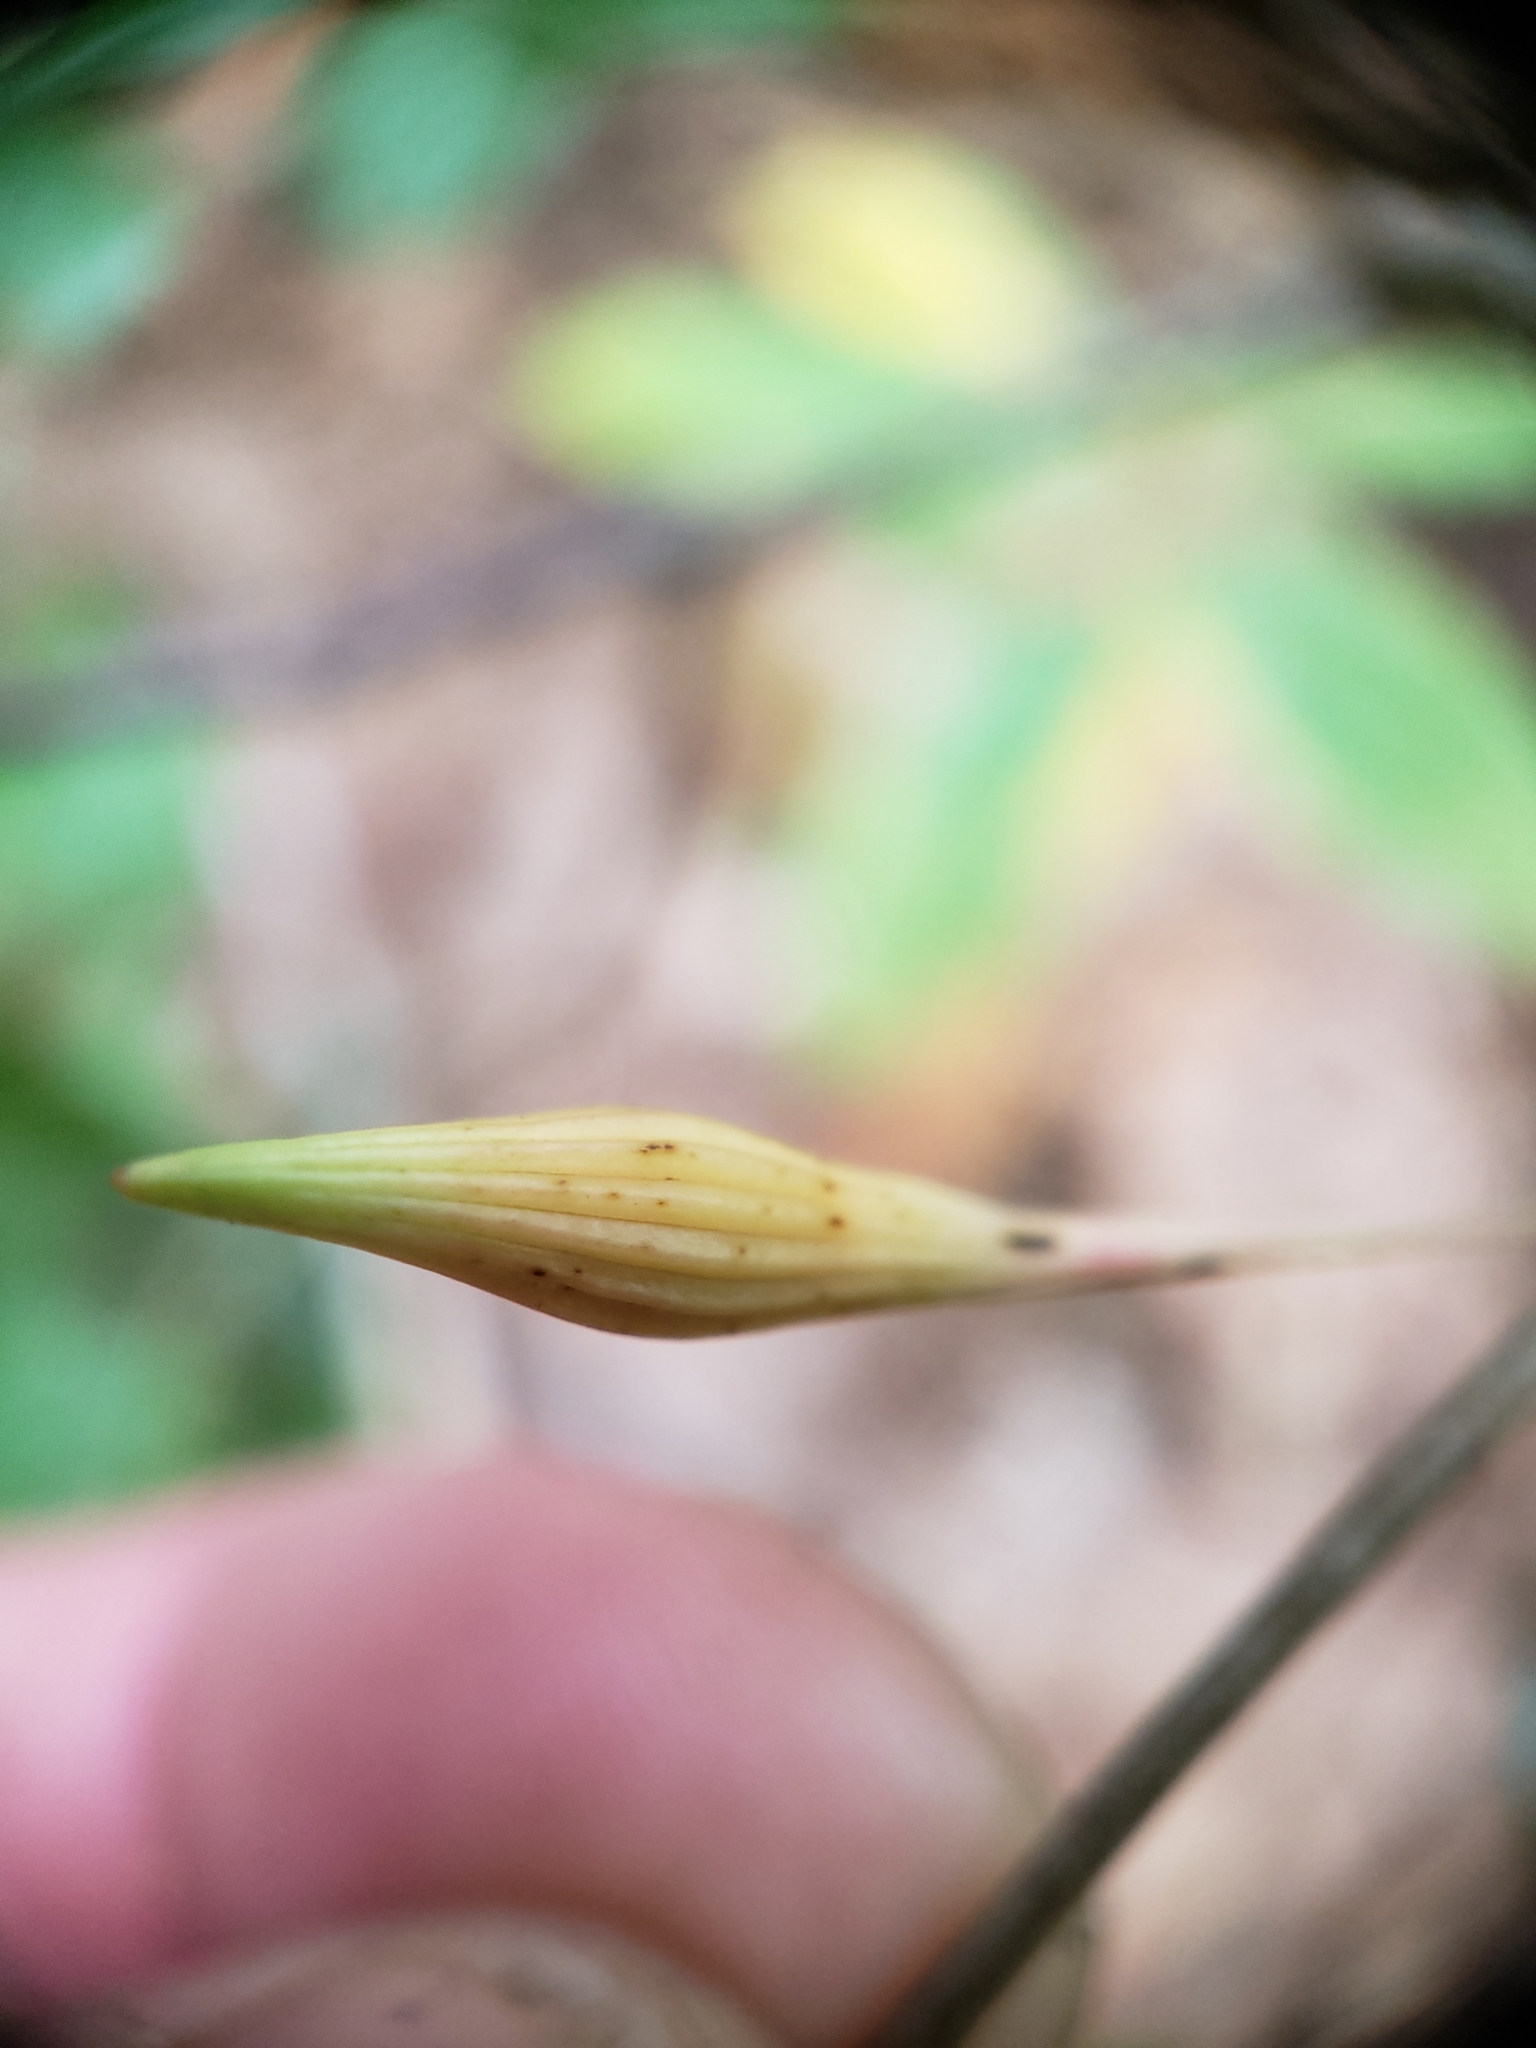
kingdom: Animalia
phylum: Arthropoda
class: Insecta
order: Hymenoptera
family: Cynipidae
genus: Callirhytis
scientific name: Callirhytis
